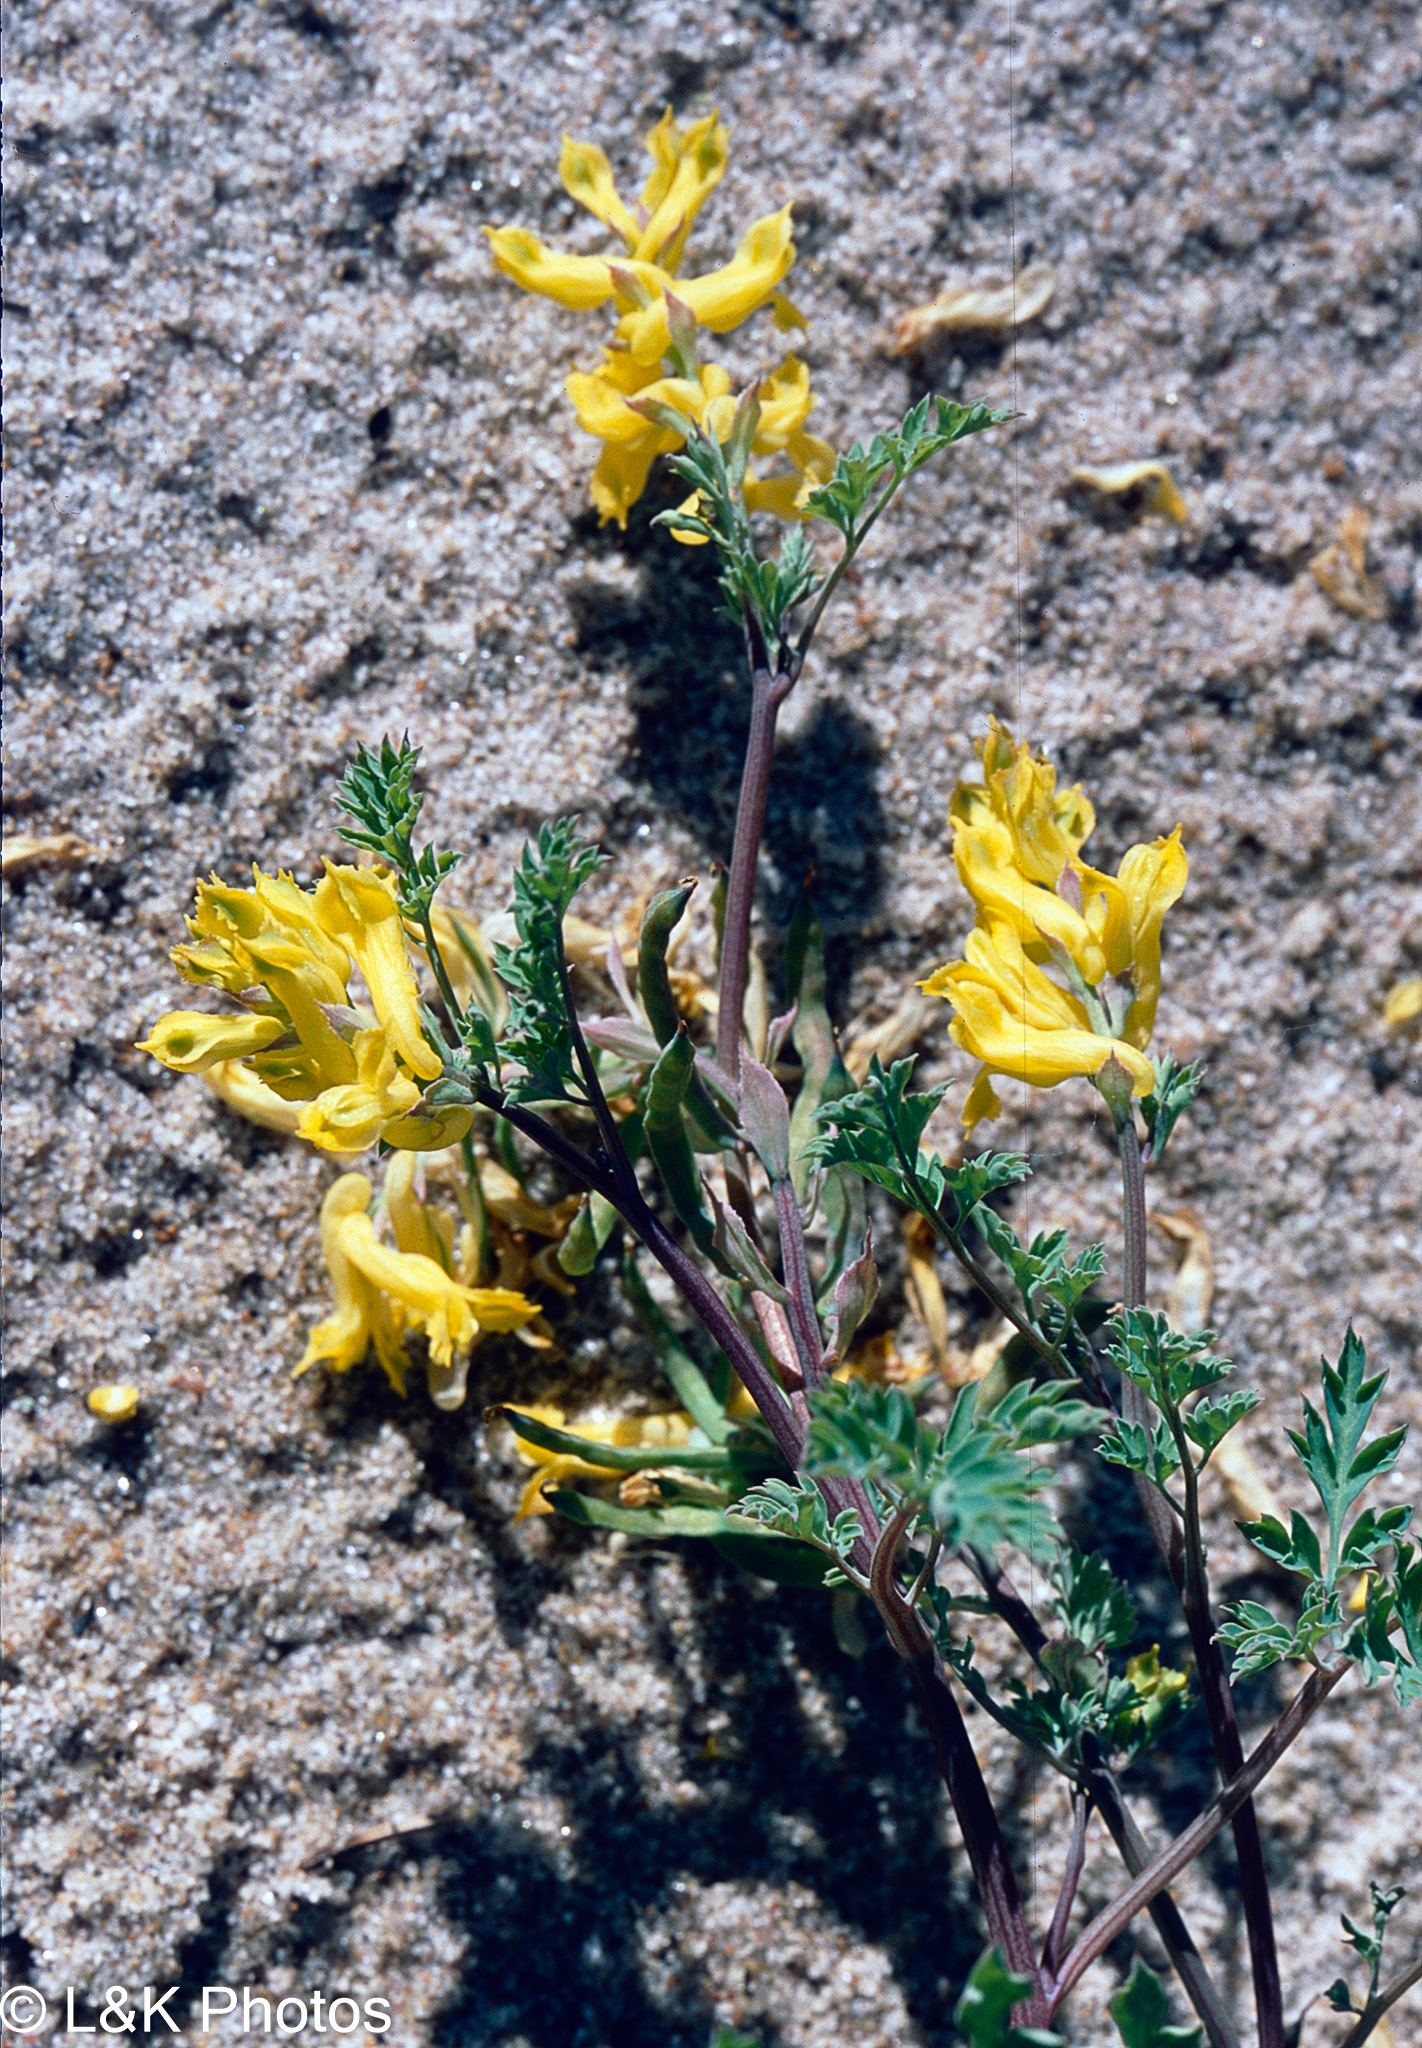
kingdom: Plantae
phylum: Tracheophyta
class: Magnoliopsida
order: Ranunculales
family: Papaveraceae
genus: Corydalis
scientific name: Corydalis aurea
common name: Golden corydalis
